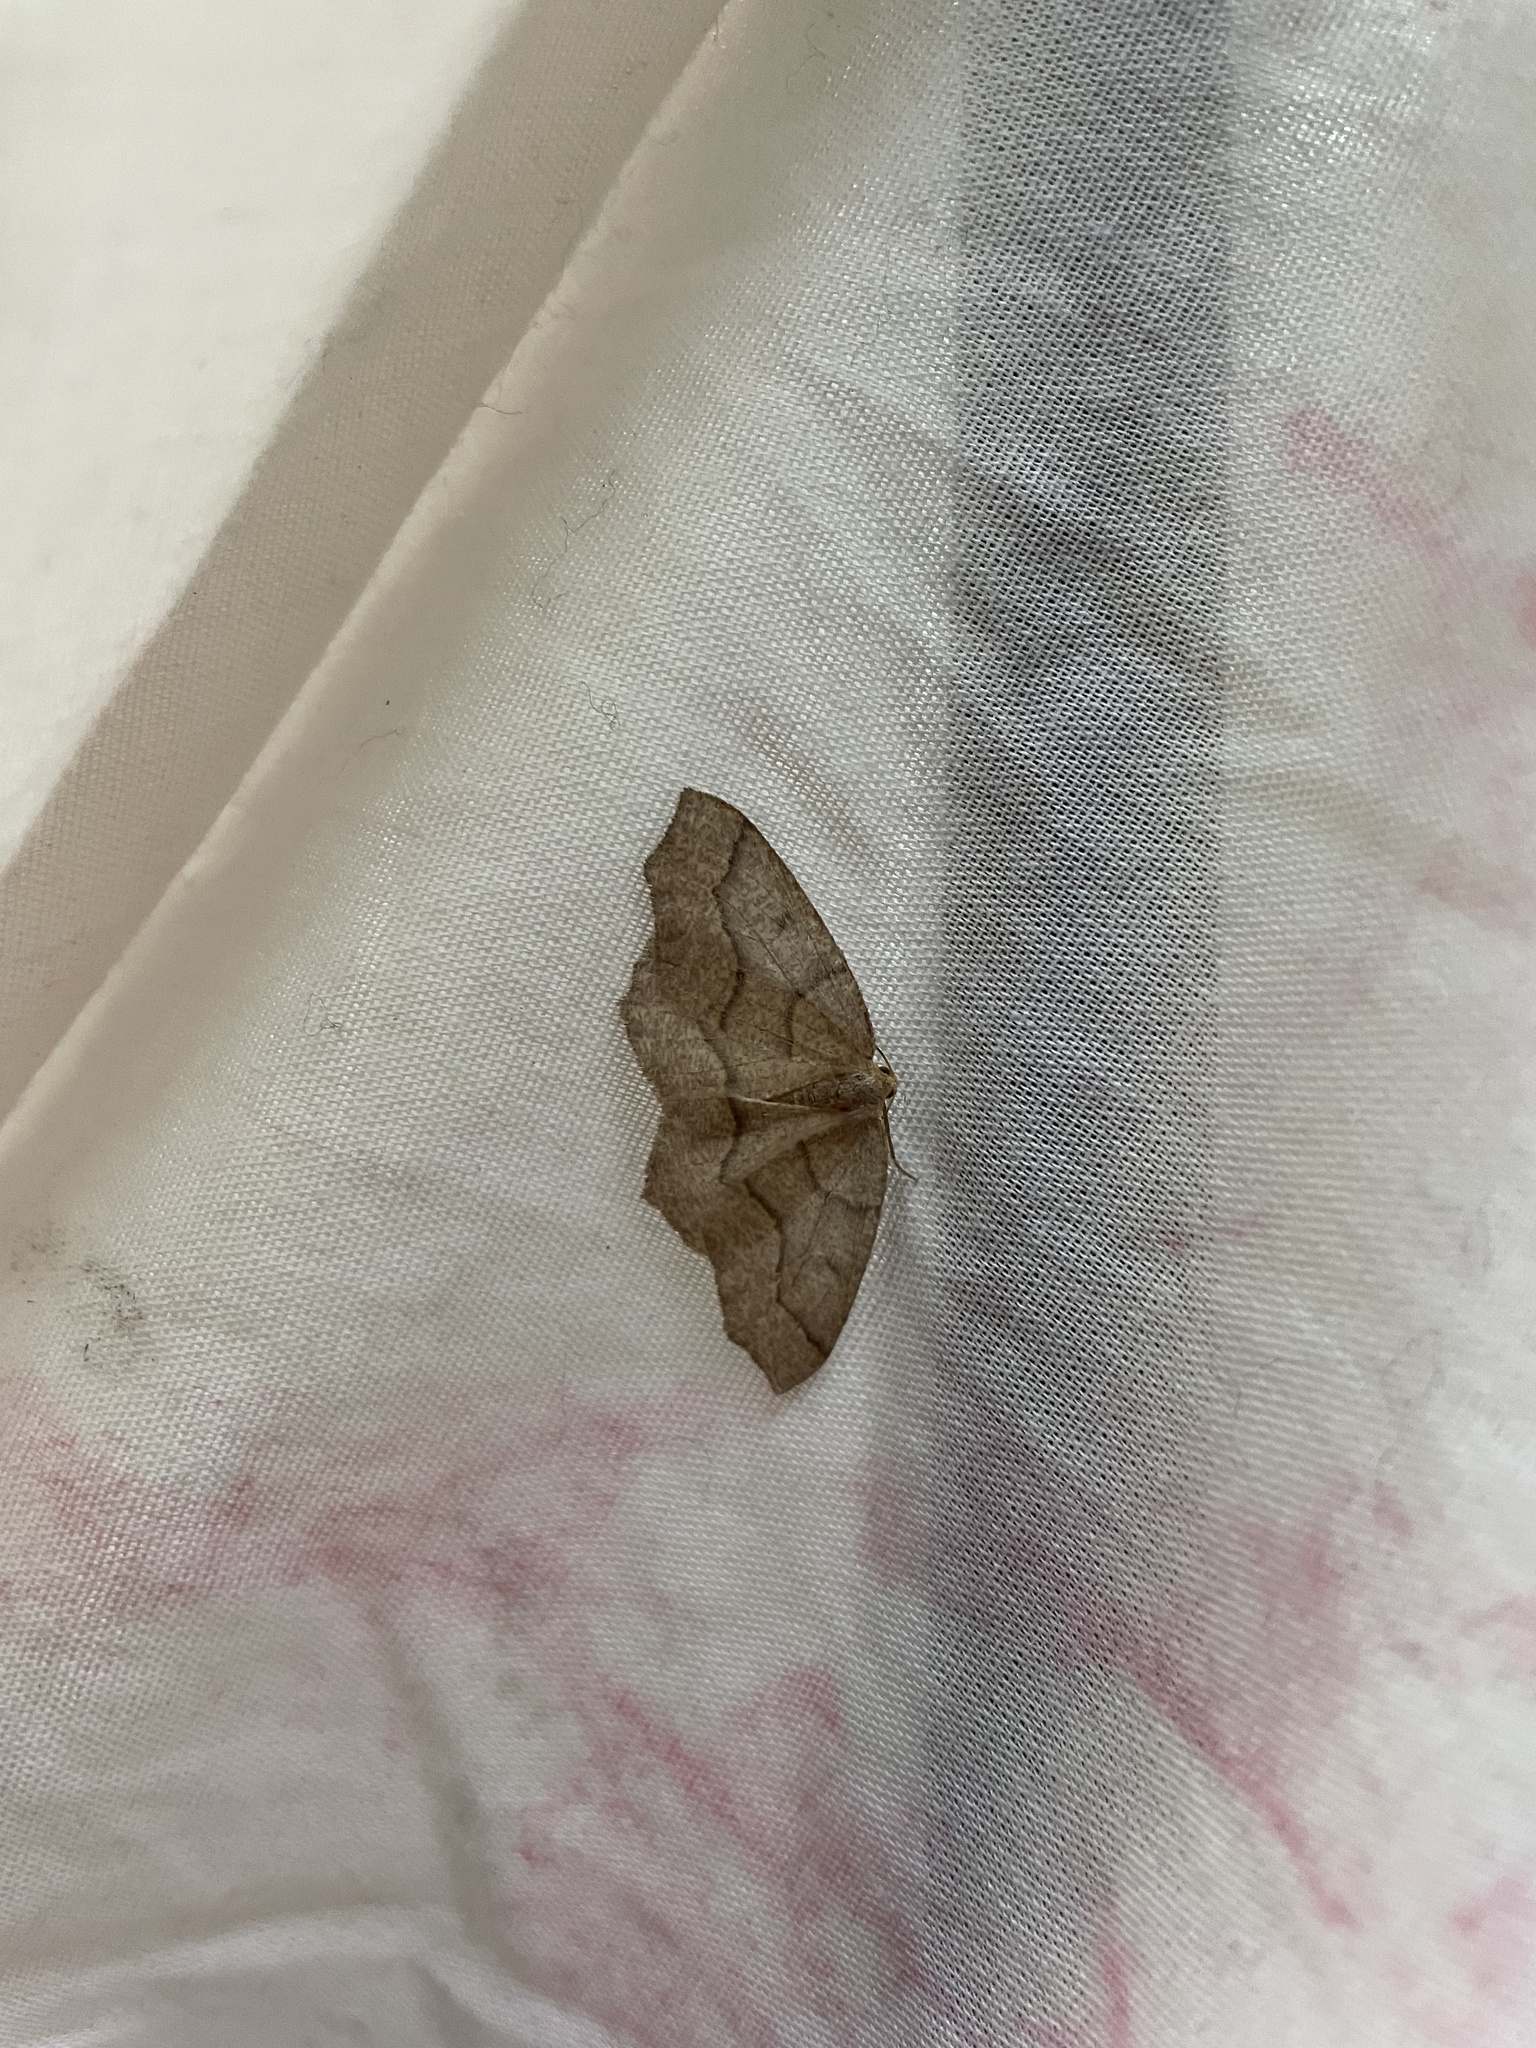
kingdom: Animalia
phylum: Arthropoda
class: Insecta
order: Lepidoptera
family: Geometridae
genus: Lambdina
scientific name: Lambdina fiscellaria
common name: Hemlock looper
